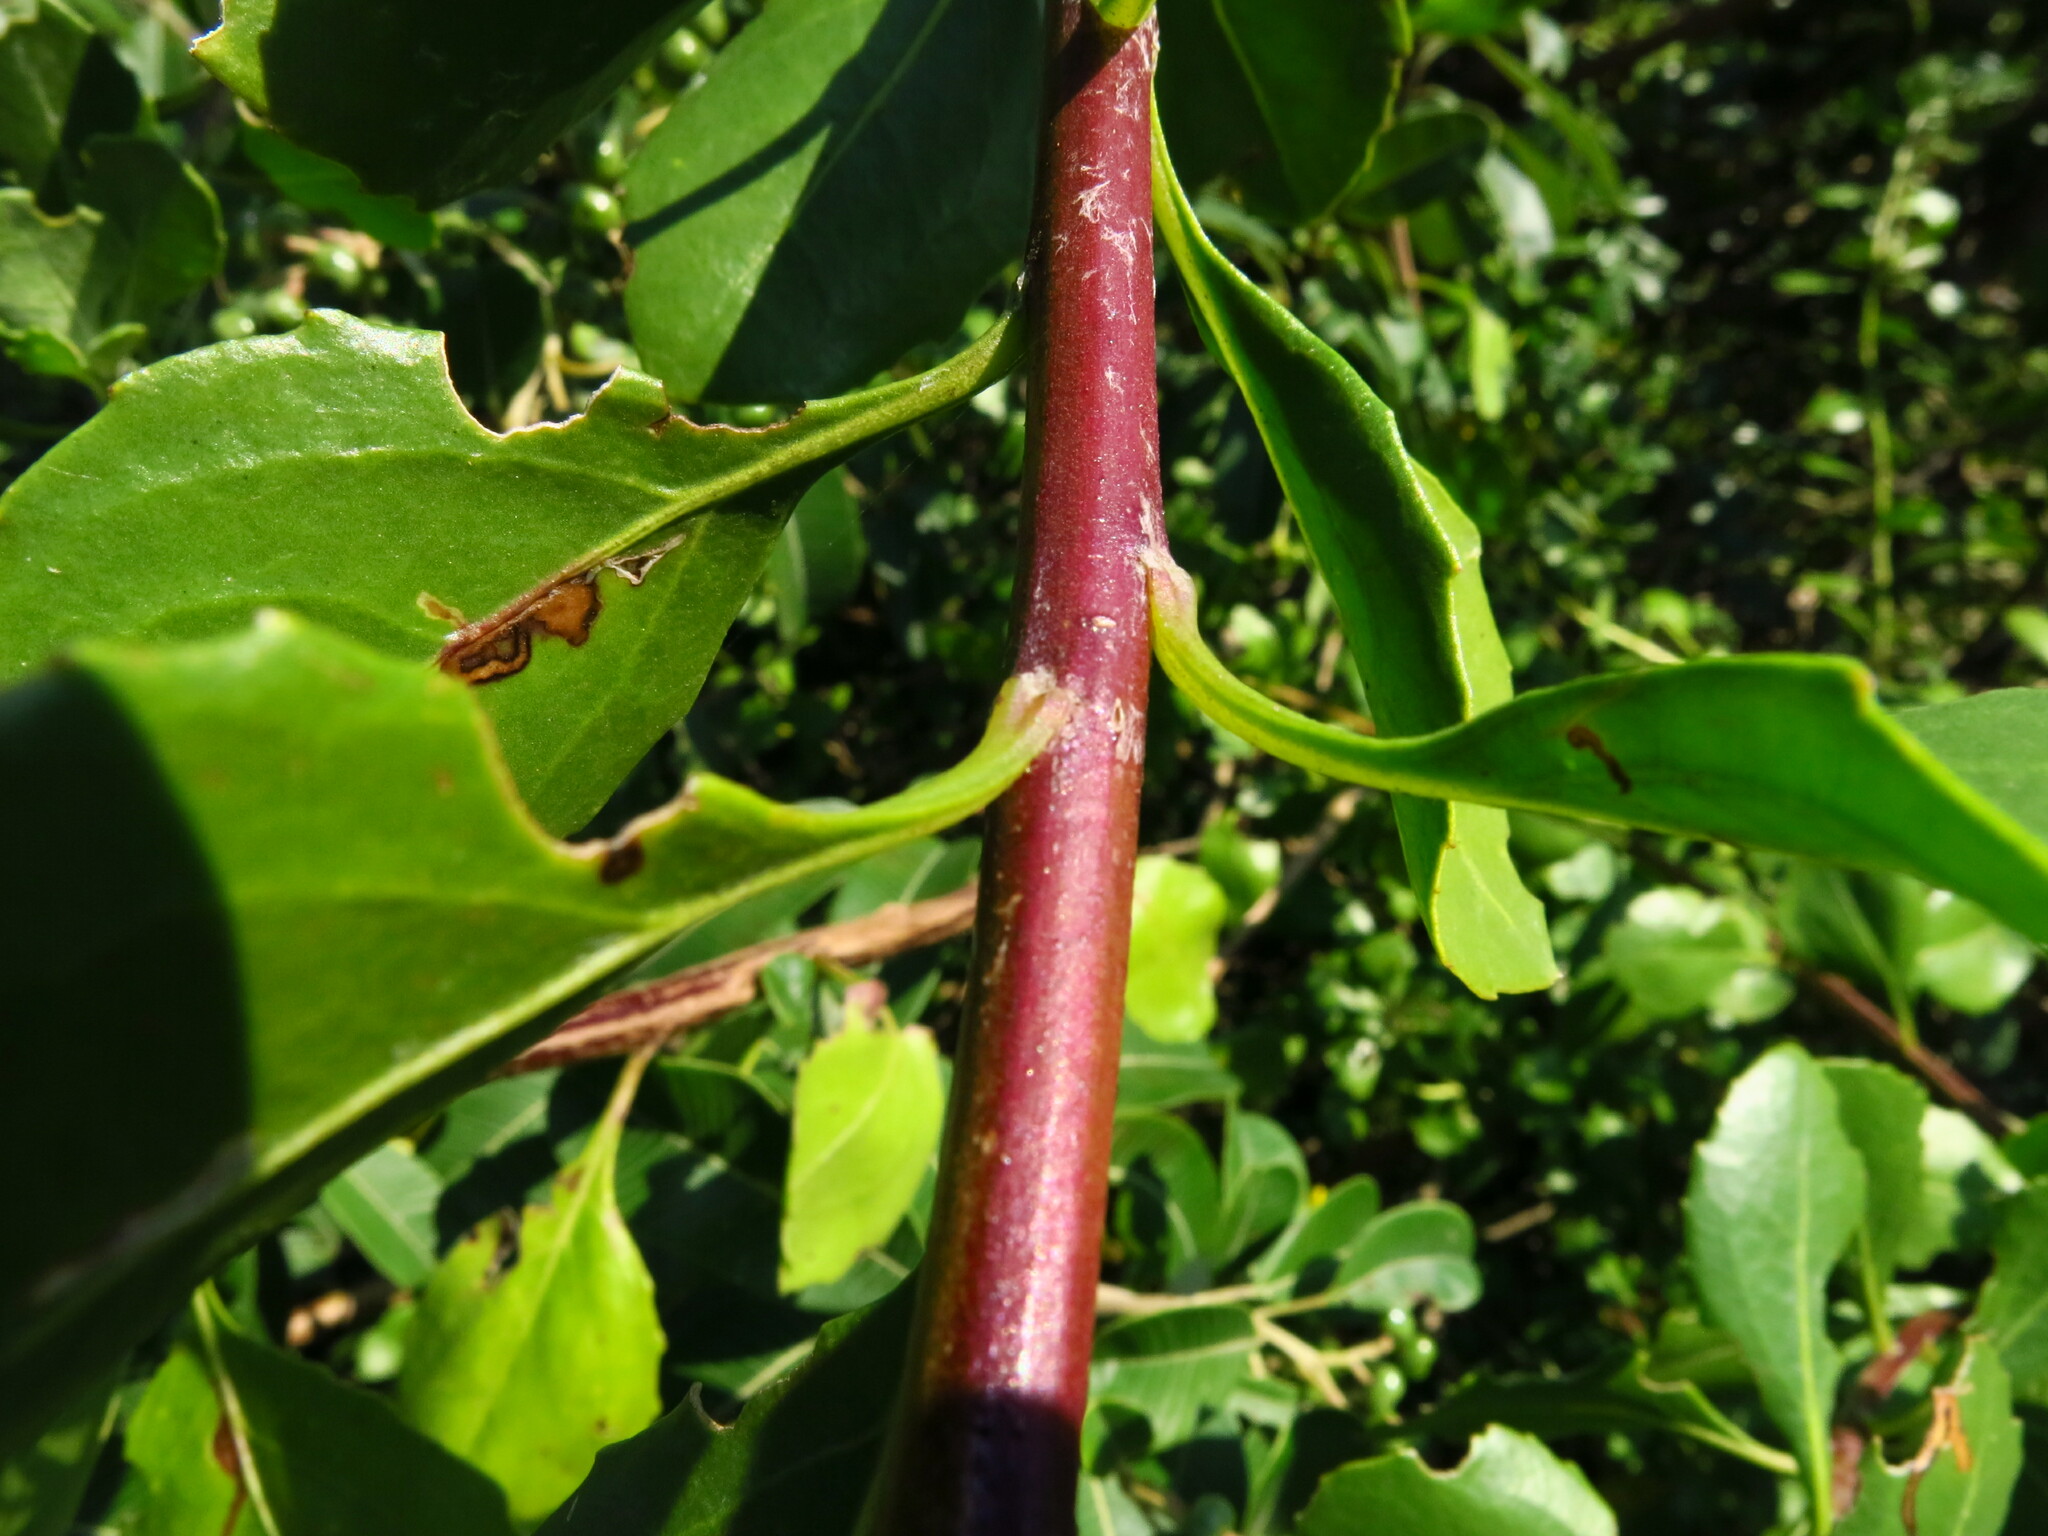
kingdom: Plantae
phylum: Tracheophyta
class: Magnoliopsida
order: Asterales
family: Asteraceae
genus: Osteospermum
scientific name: Osteospermum moniliferum
